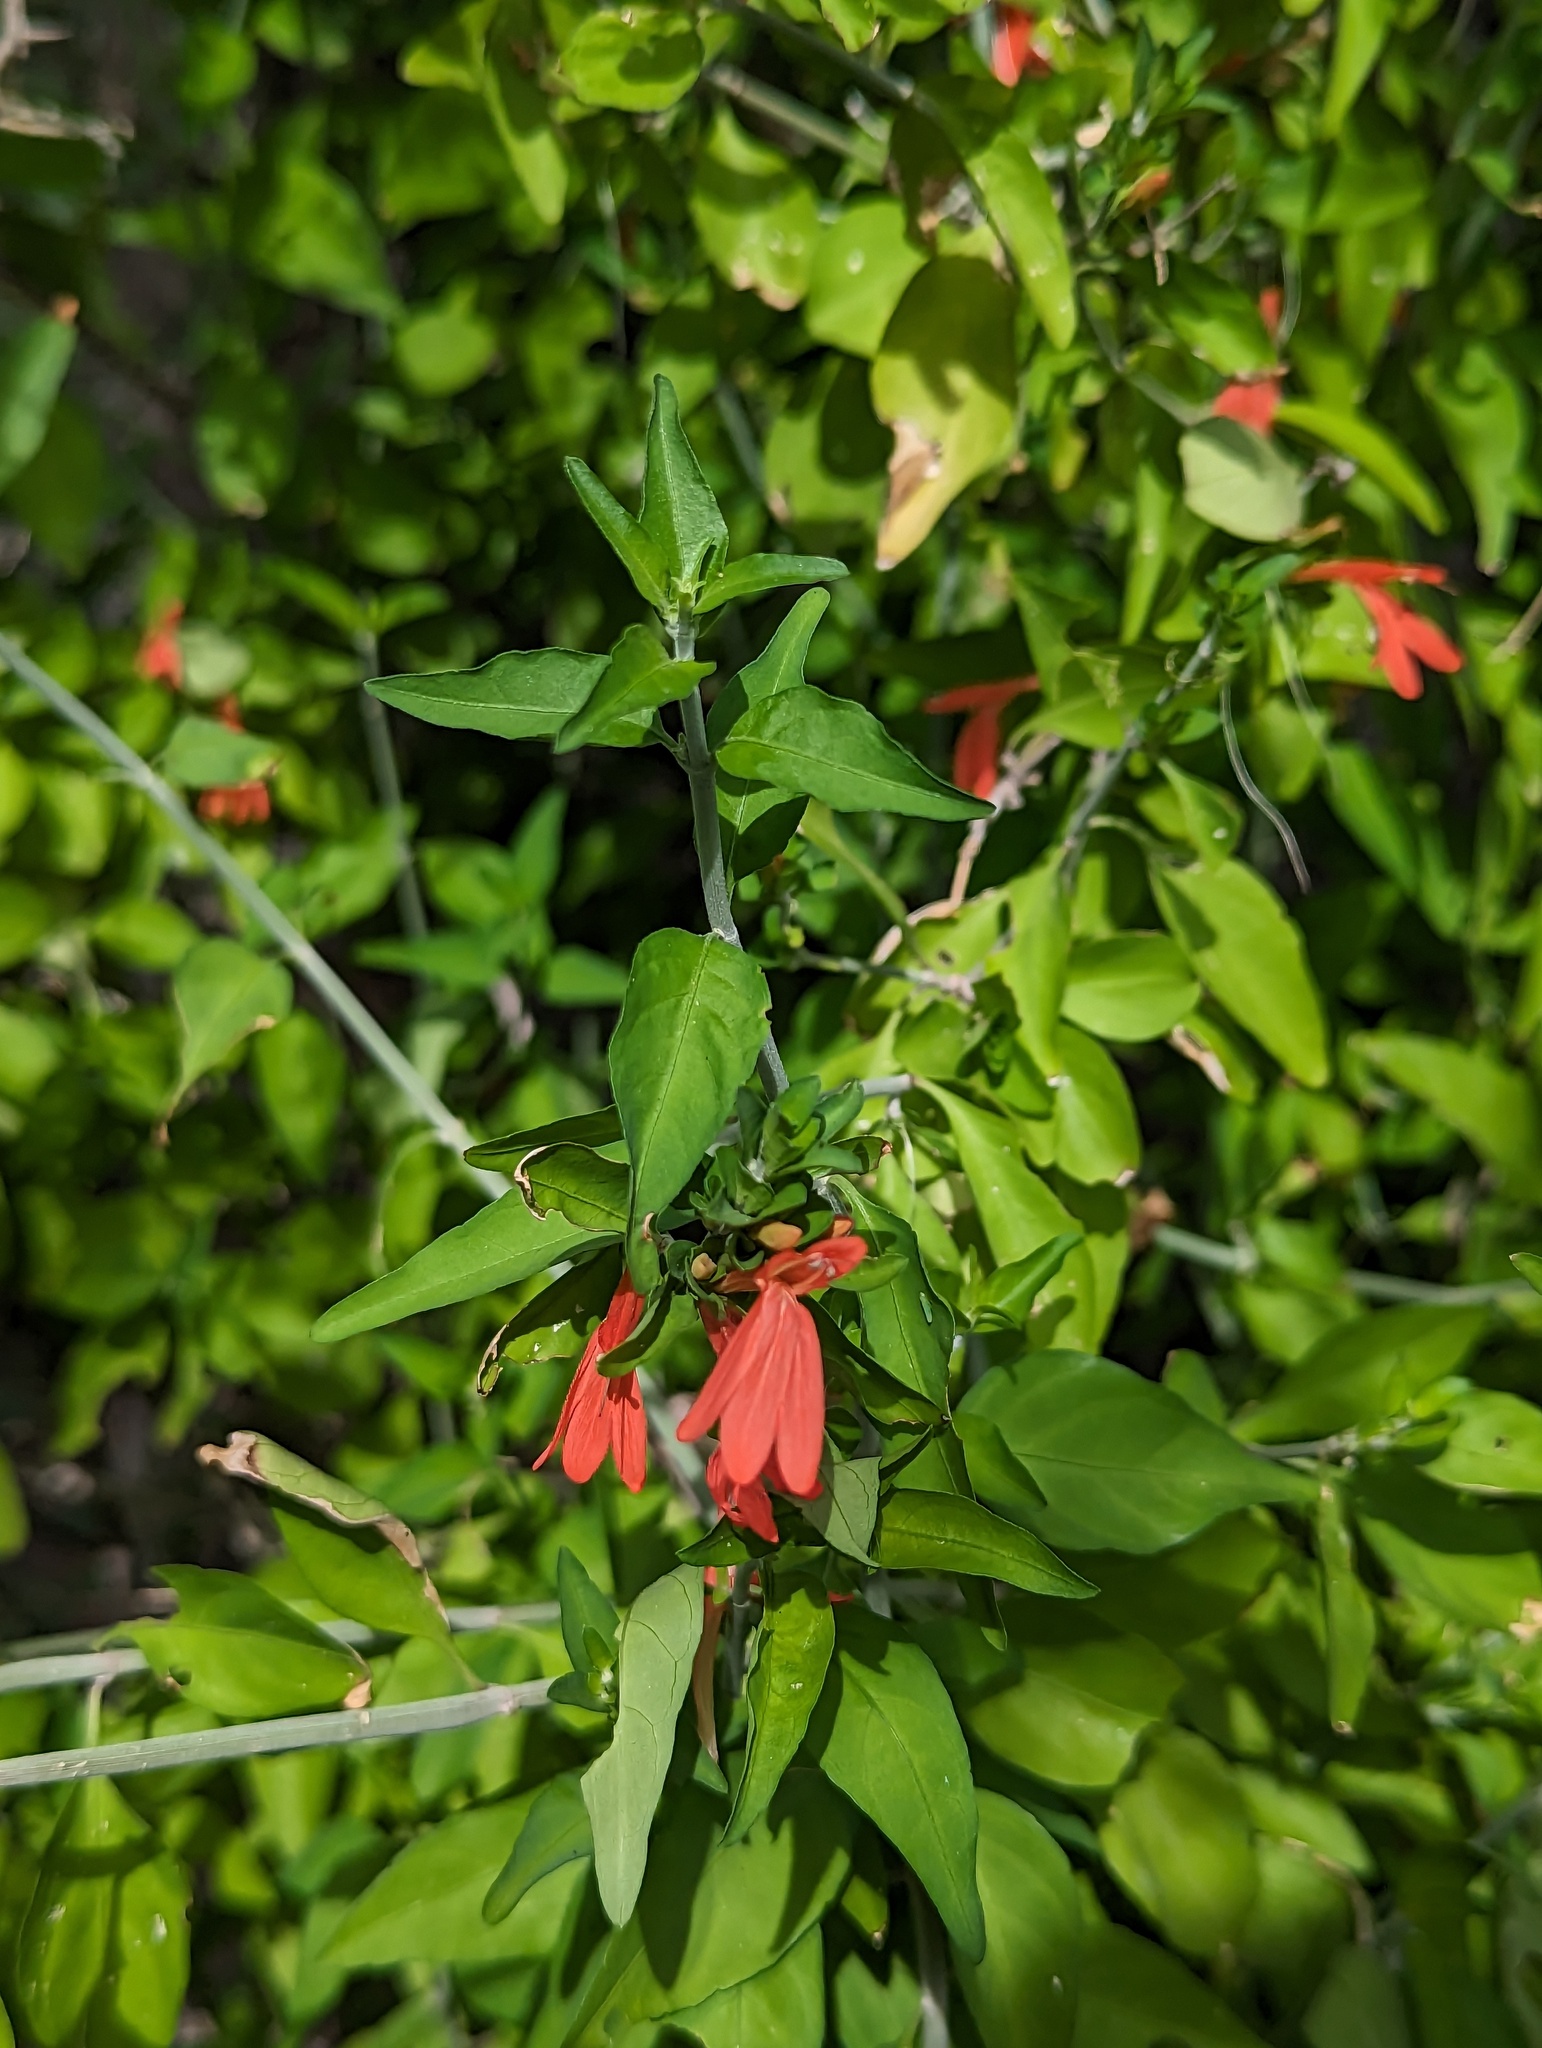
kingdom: Plantae
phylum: Tracheophyta
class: Magnoliopsida
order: Lamiales
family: Acanthaceae
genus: Justicia
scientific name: Justicia palmeri
